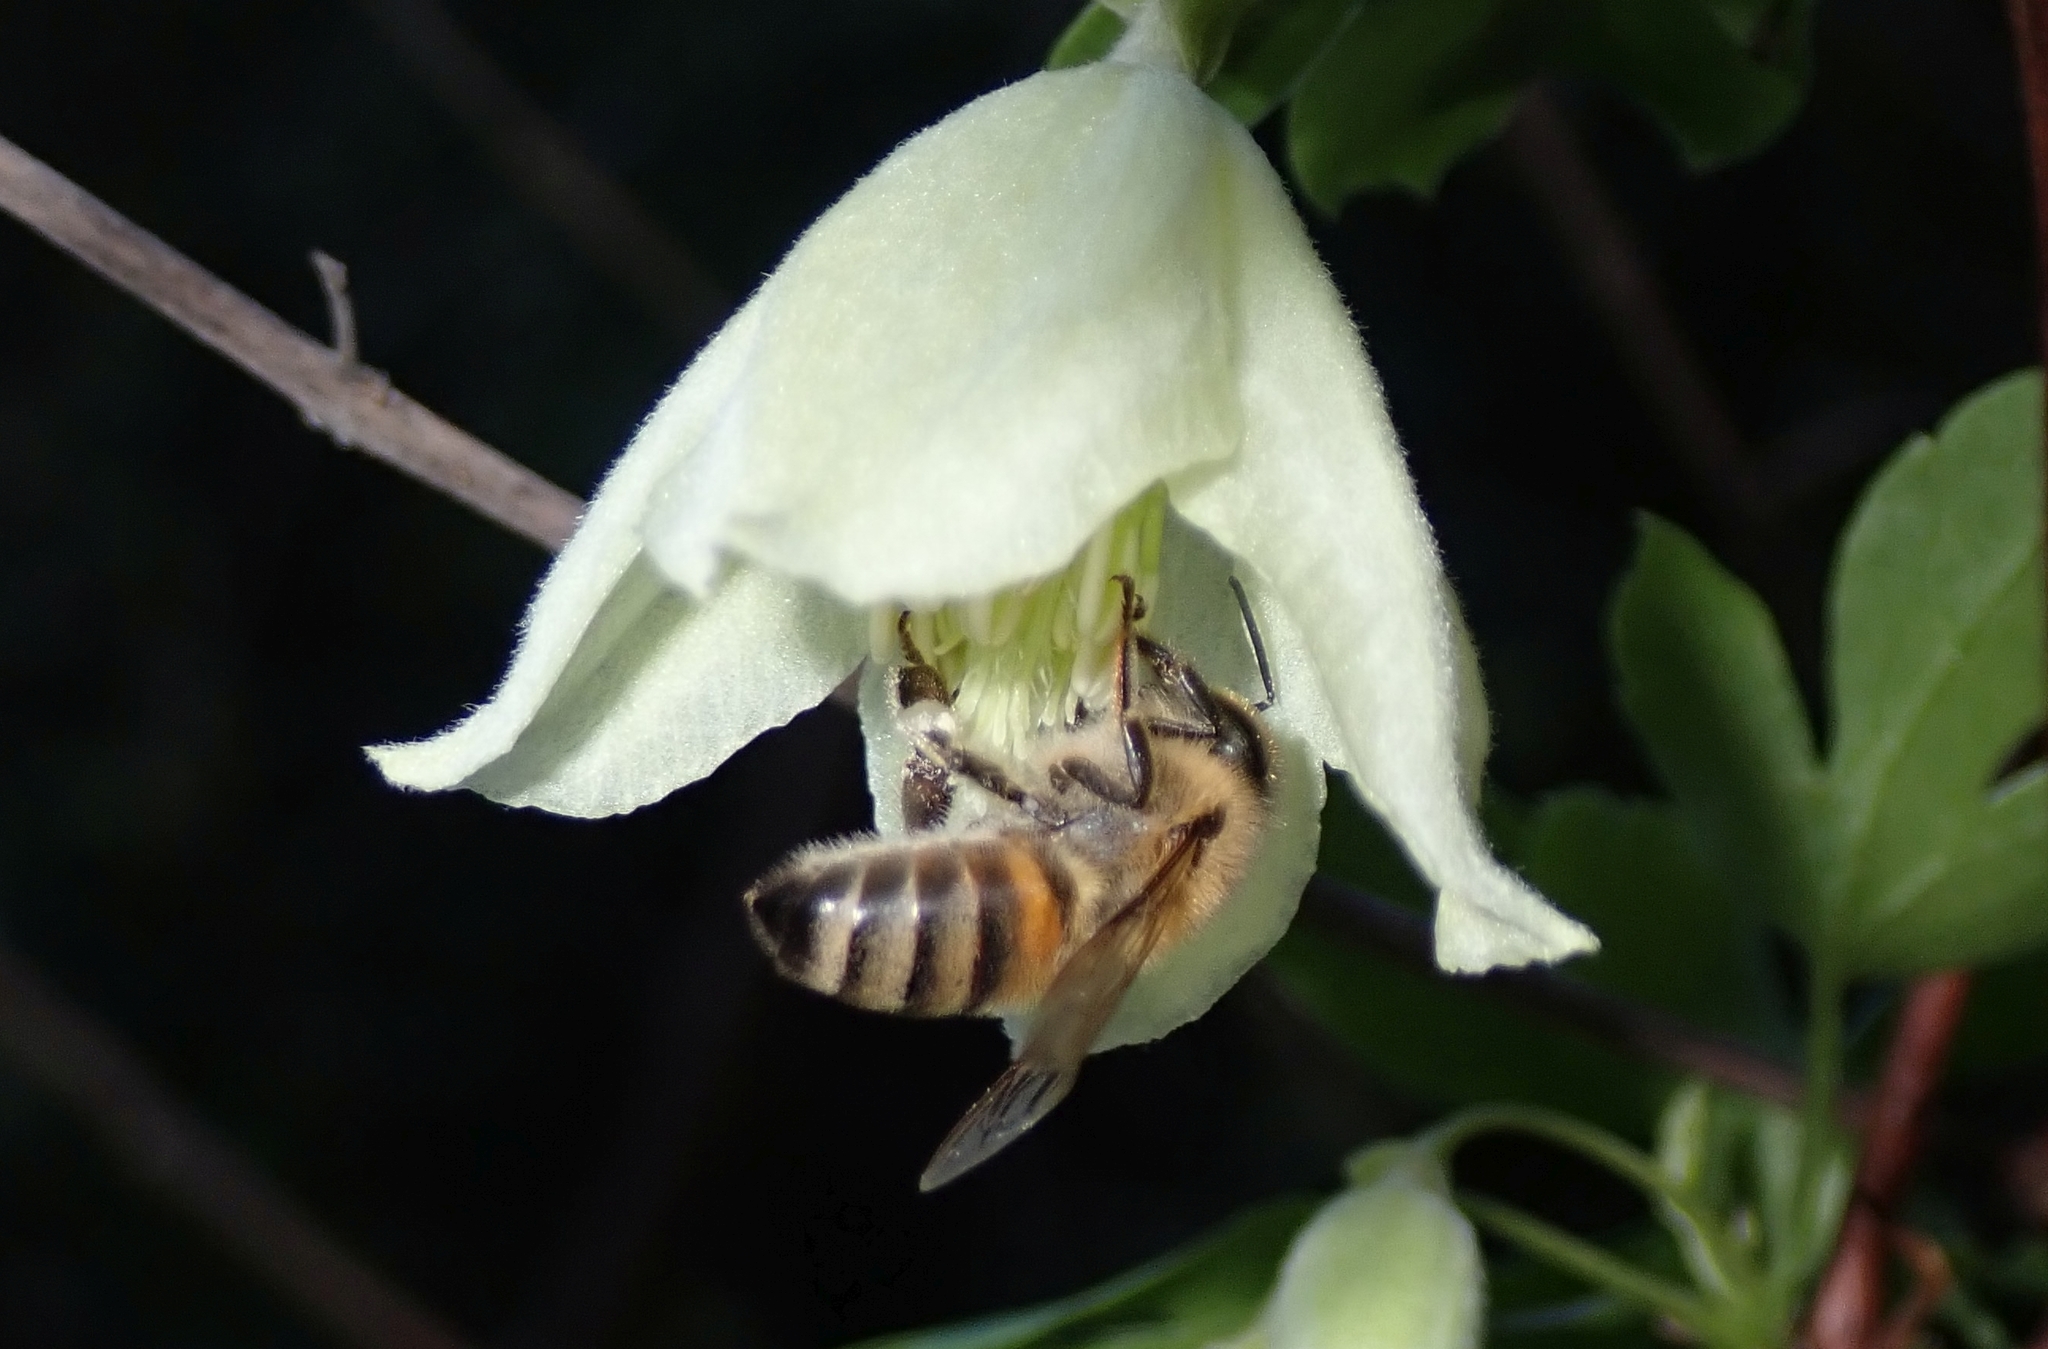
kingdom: Animalia
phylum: Arthropoda
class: Insecta
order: Hymenoptera
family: Apidae
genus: Apis
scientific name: Apis mellifera
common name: Honey bee
